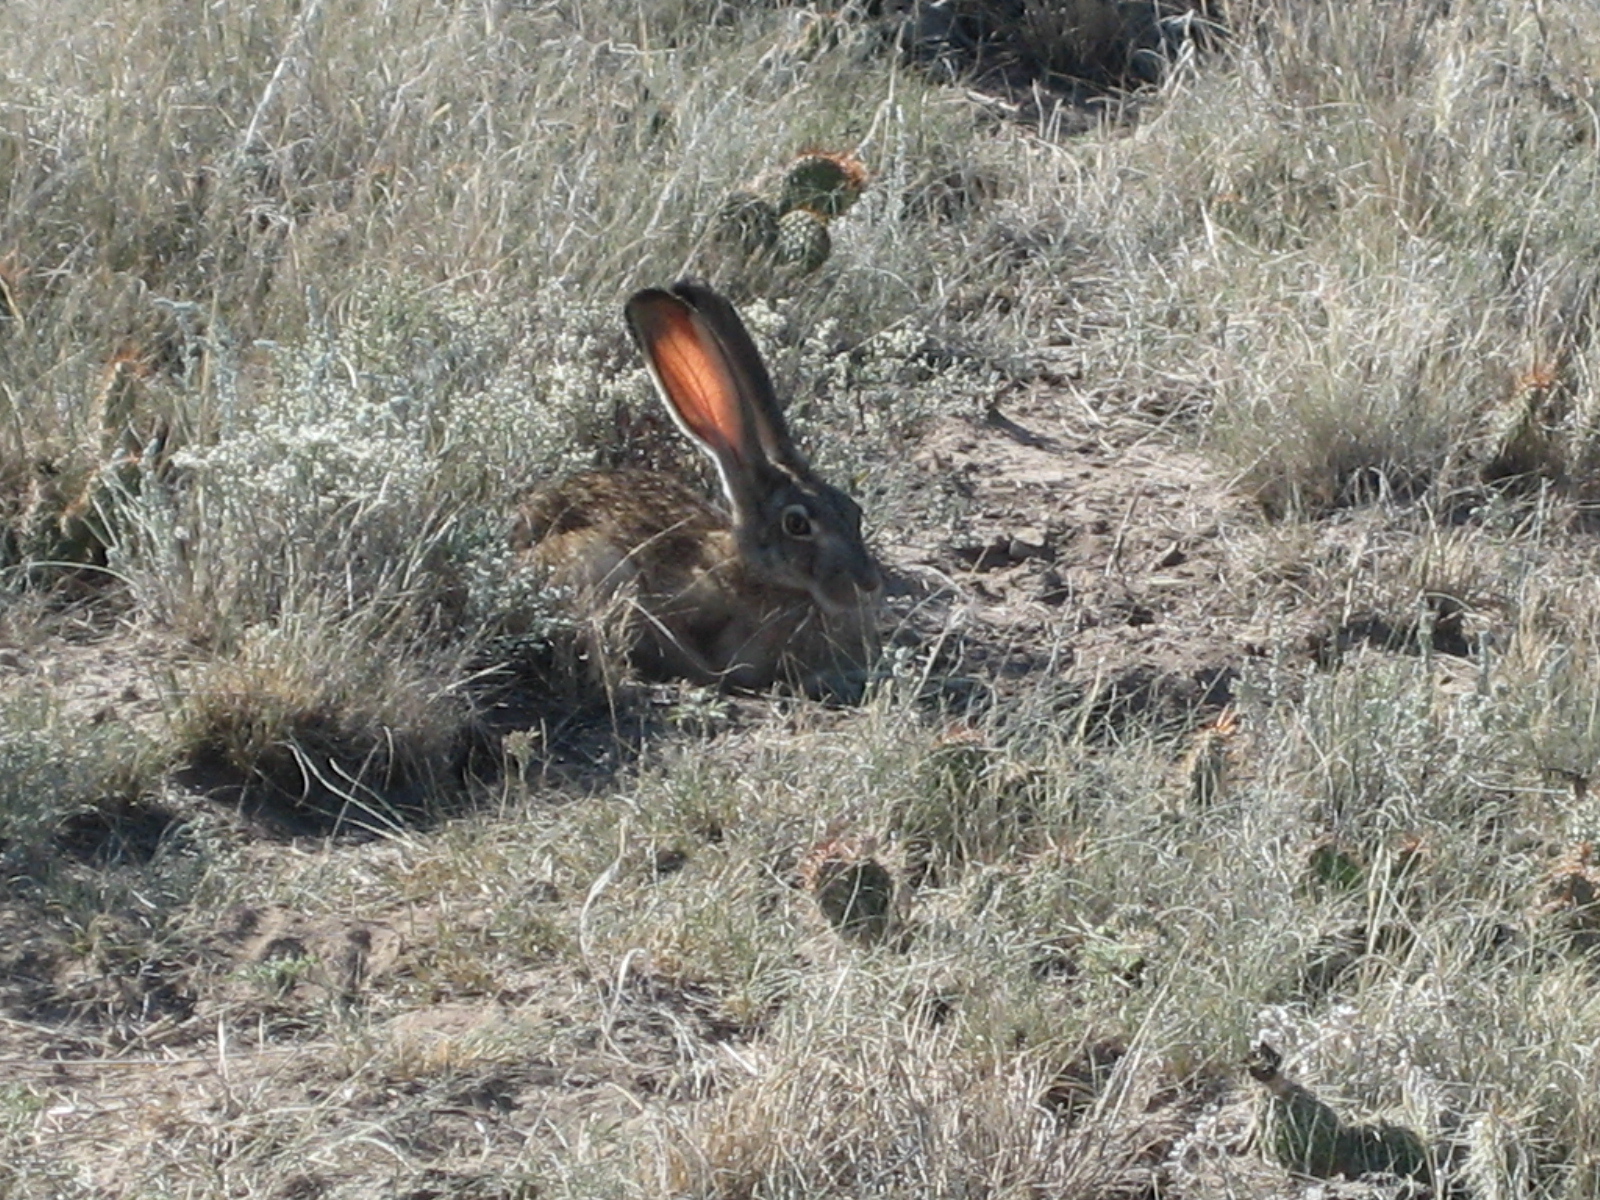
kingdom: Animalia
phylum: Chordata
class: Mammalia
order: Lagomorpha
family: Leporidae
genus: Lepus
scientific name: Lepus townsendii
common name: White-tailed jackrabbit
